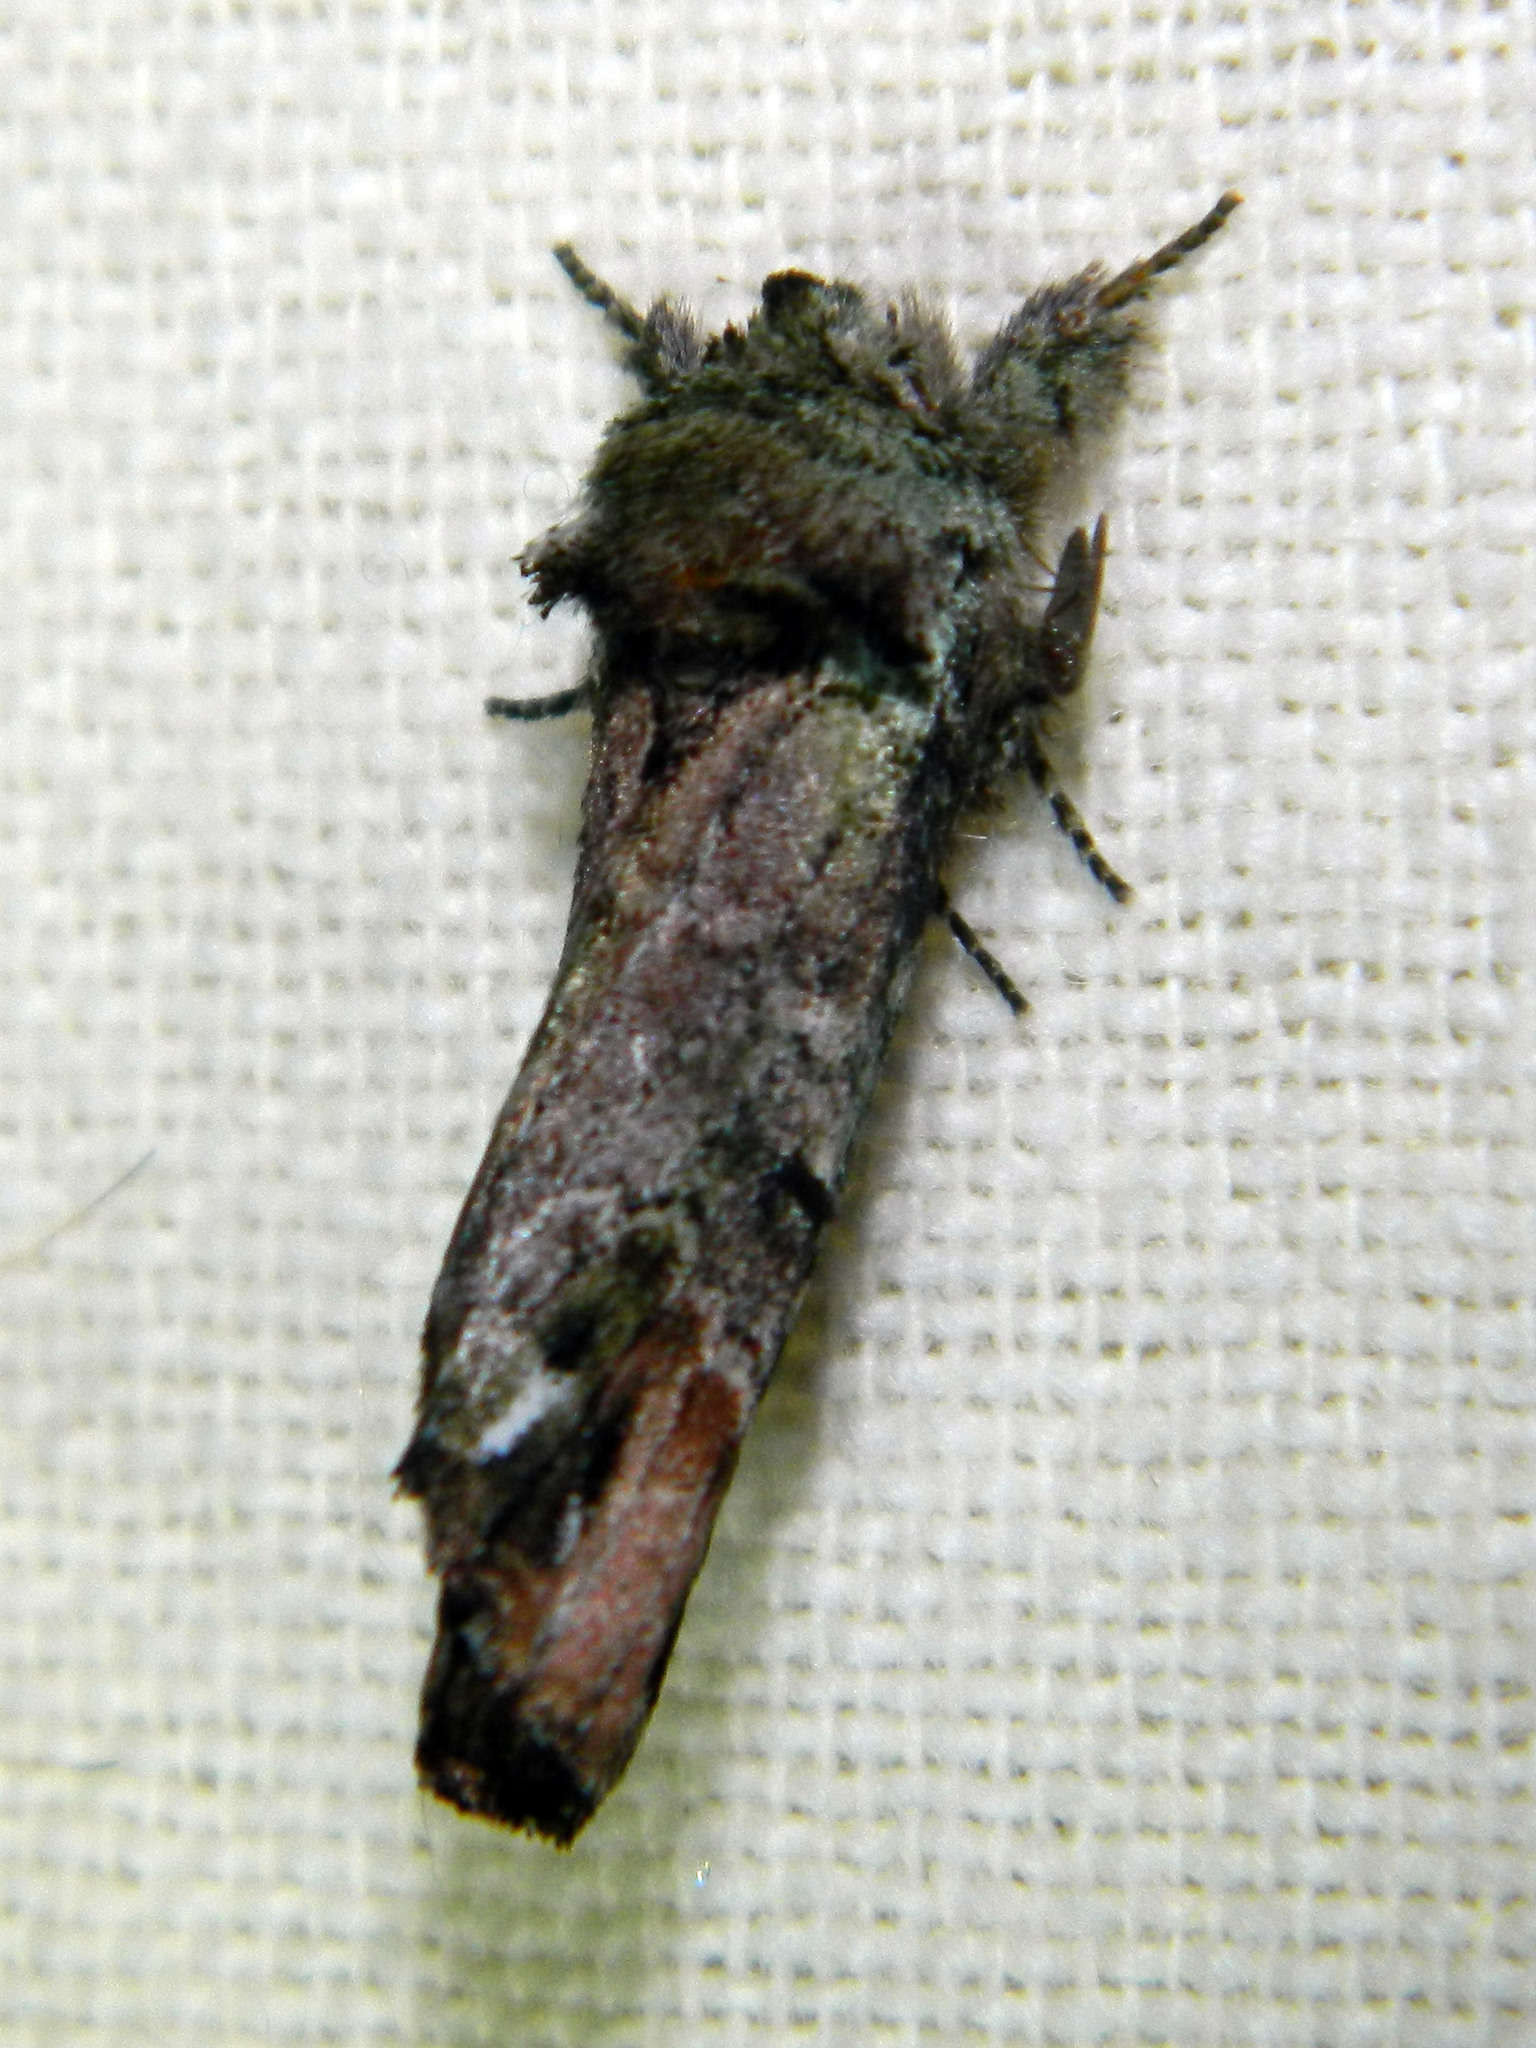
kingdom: Animalia
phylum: Arthropoda
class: Insecta
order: Lepidoptera
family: Notodontidae
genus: Schizura
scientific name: Schizura
